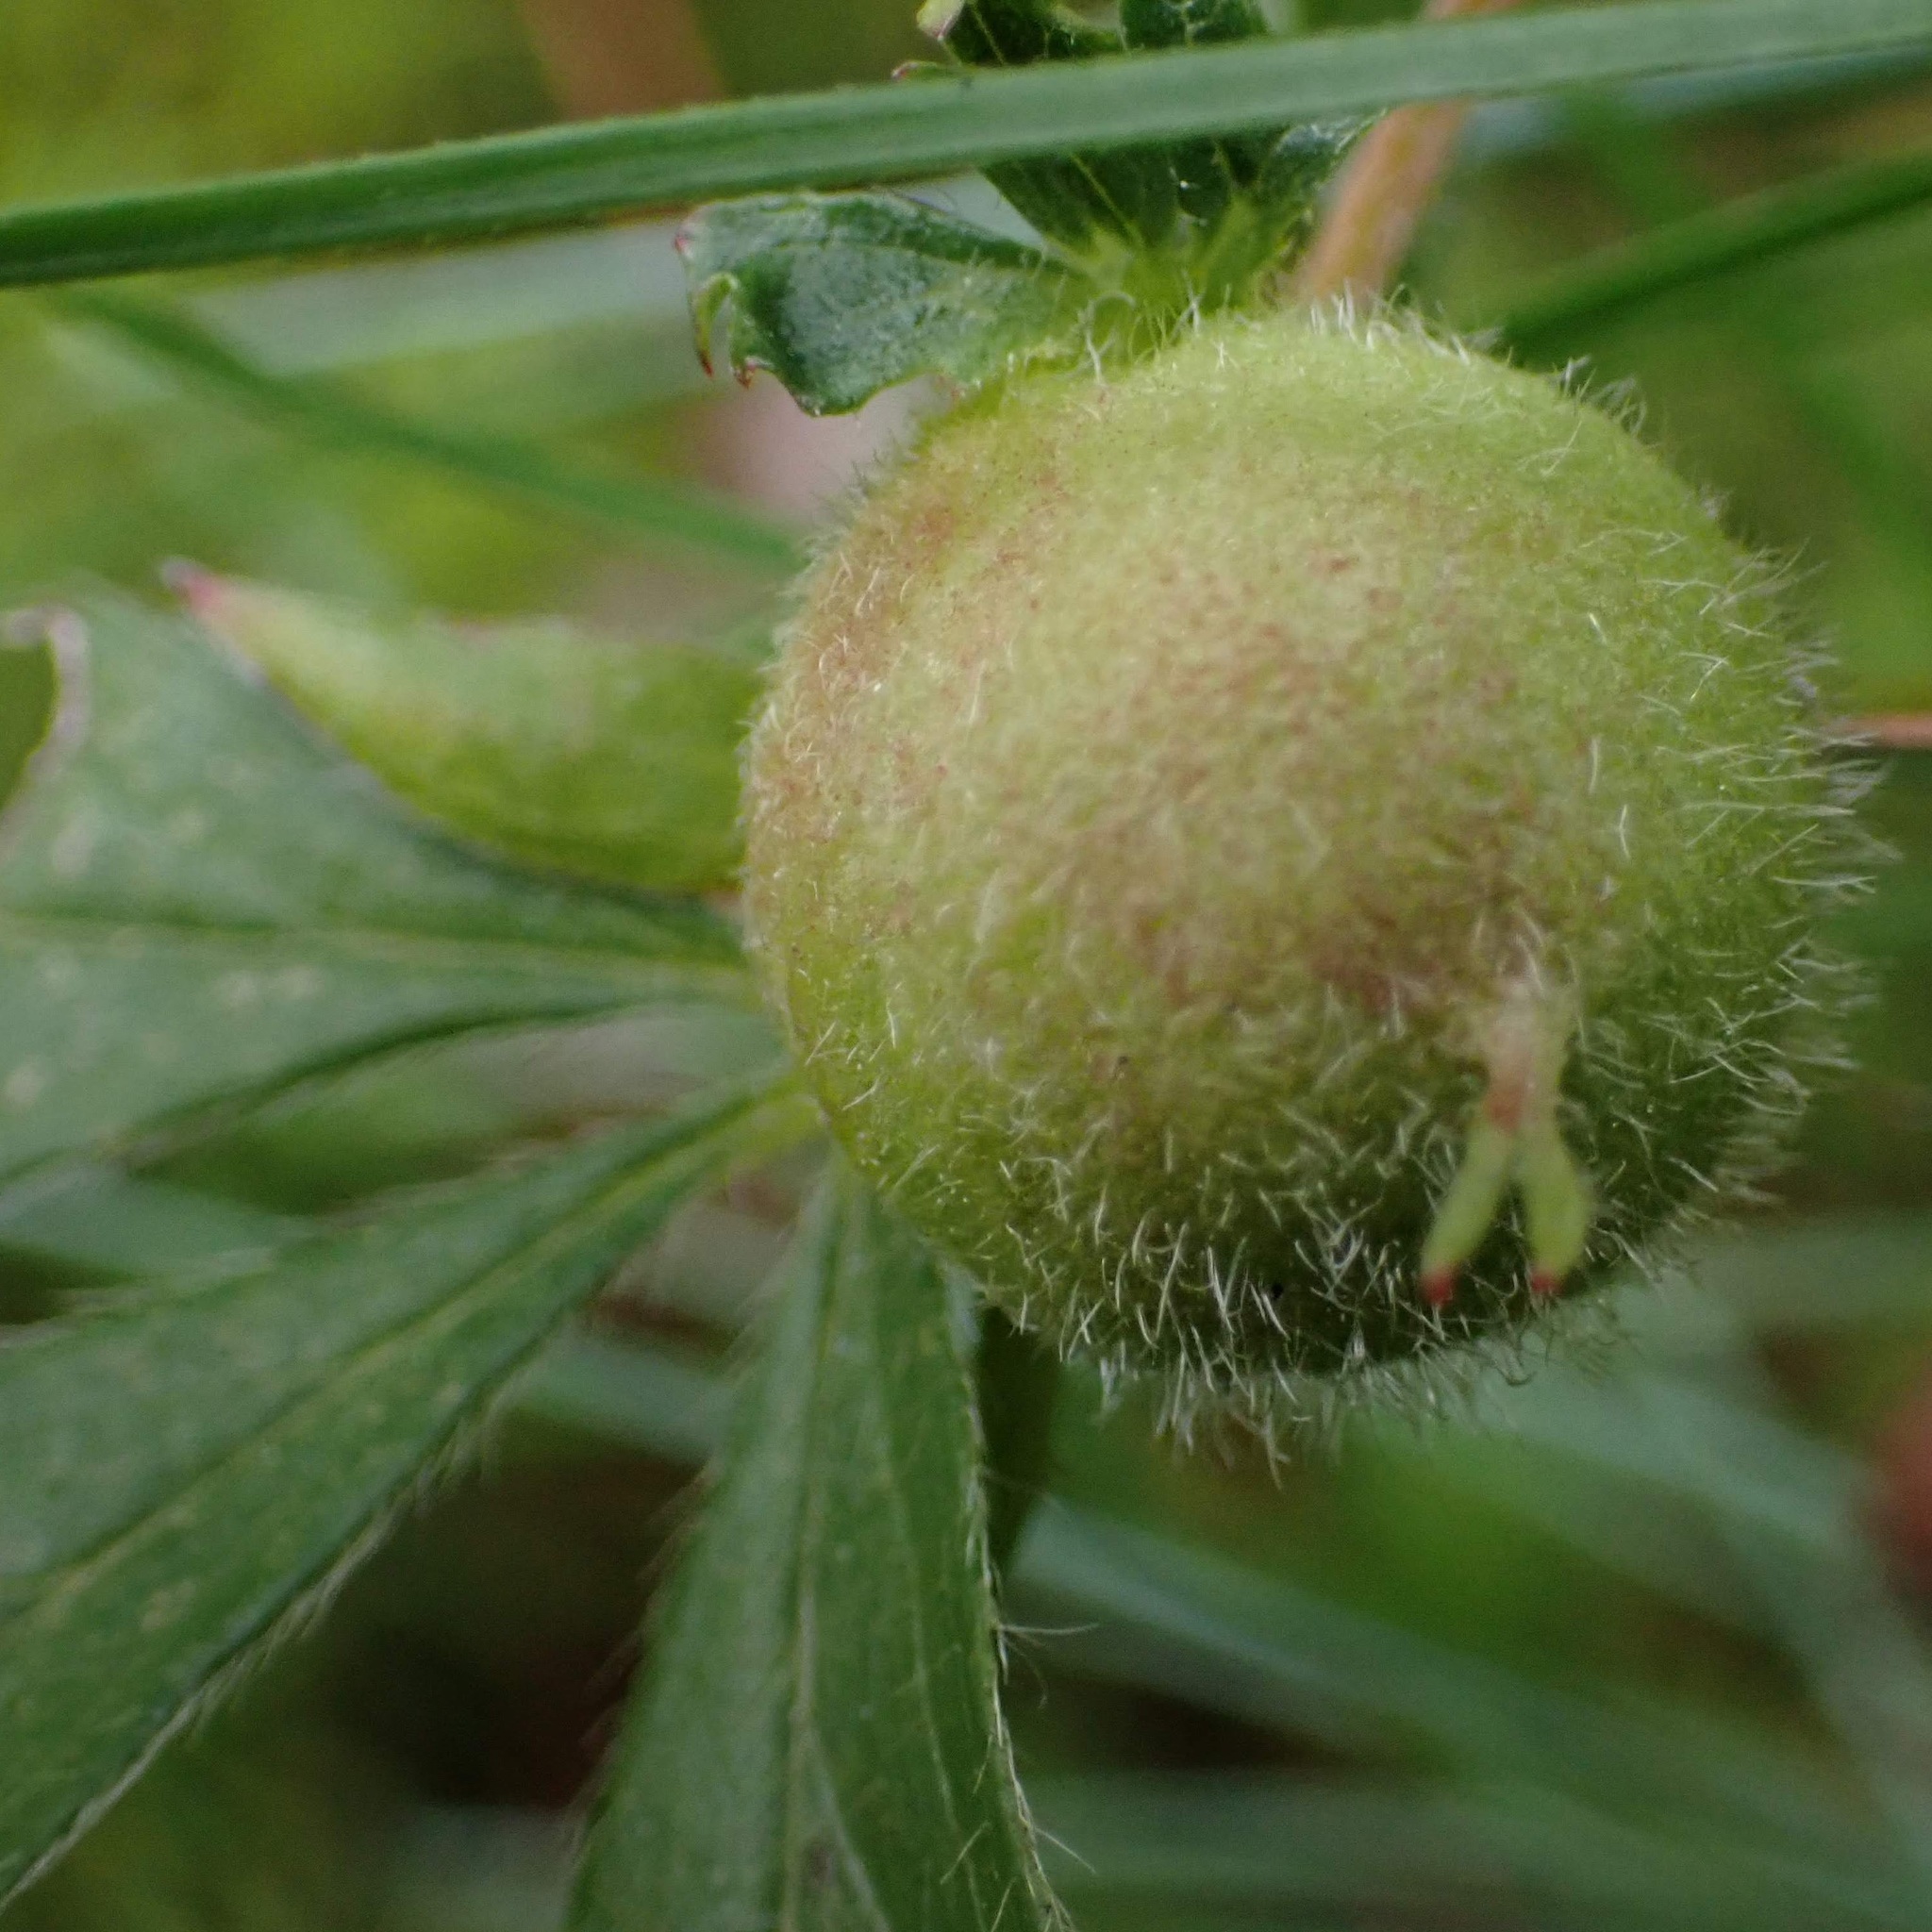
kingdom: Animalia
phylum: Arthropoda
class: Insecta
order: Hymenoptera
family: Cynipidae
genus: Diastrophus
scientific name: Diastrophus potentillae
